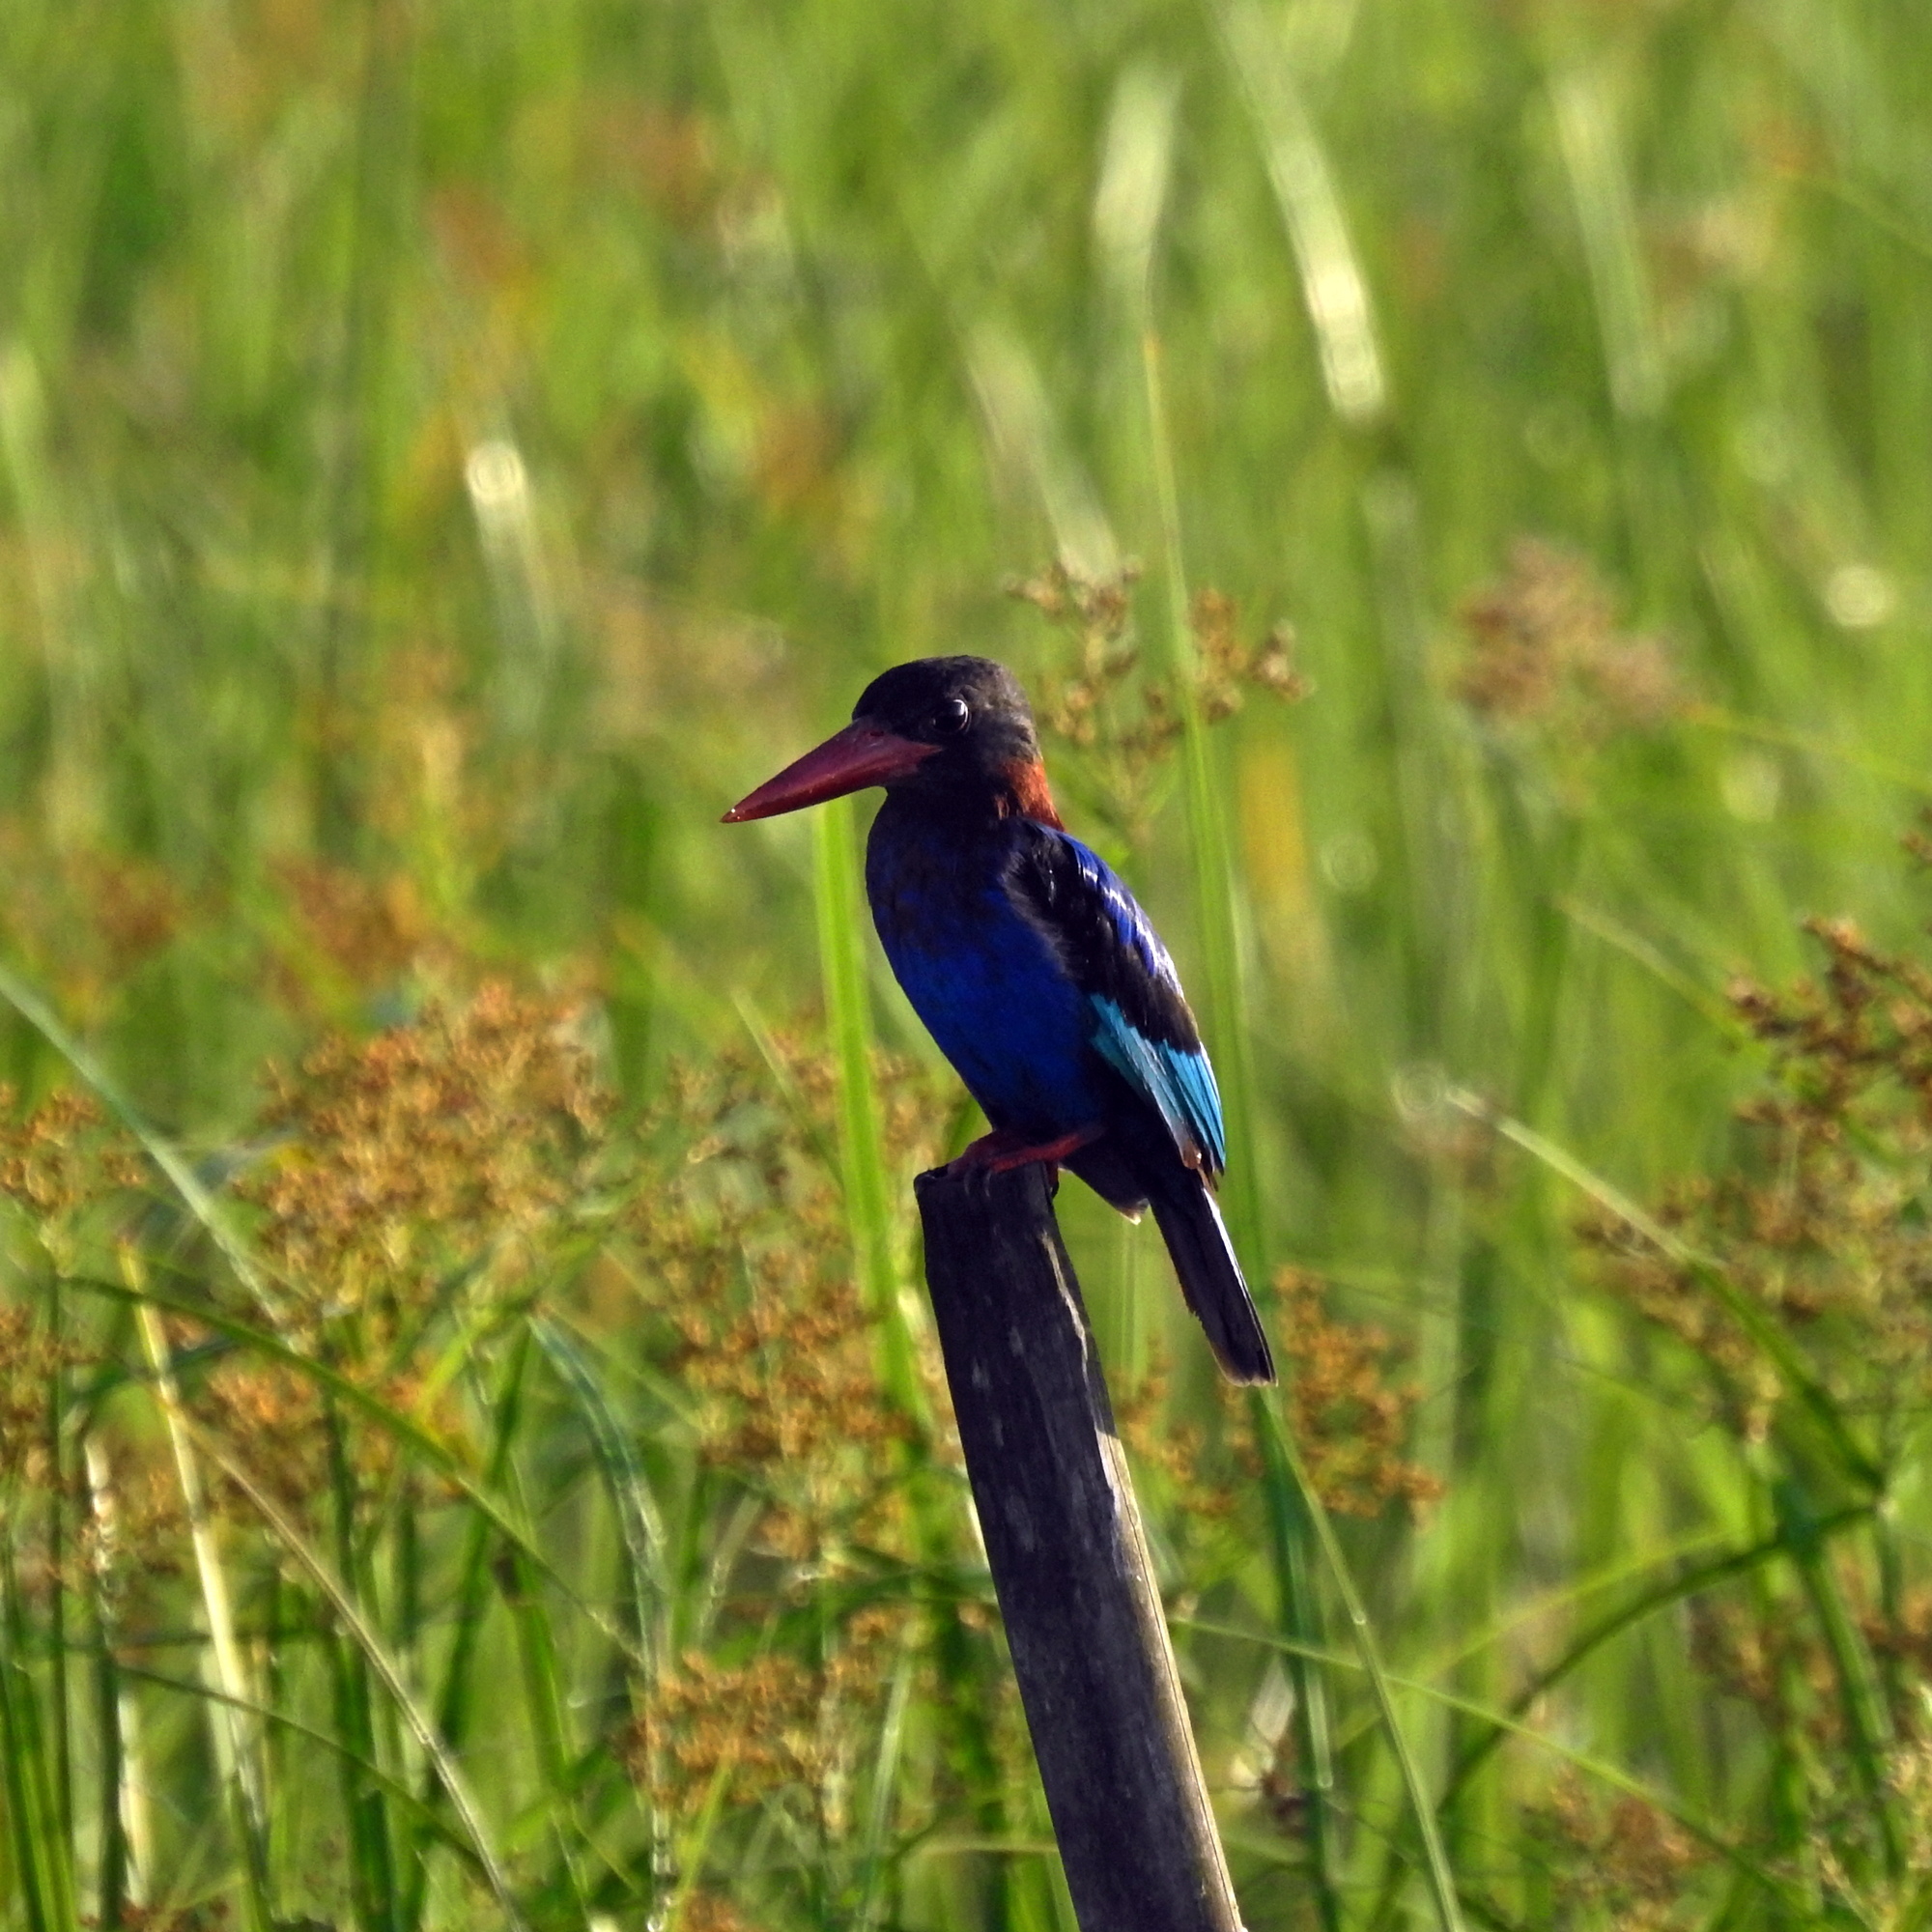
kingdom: Animalia
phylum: Chordata
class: Aves
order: Coraciiformes
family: Alcedinidae
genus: Halcyon
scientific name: Halcyon cyanoventris
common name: Javan kingfisher
